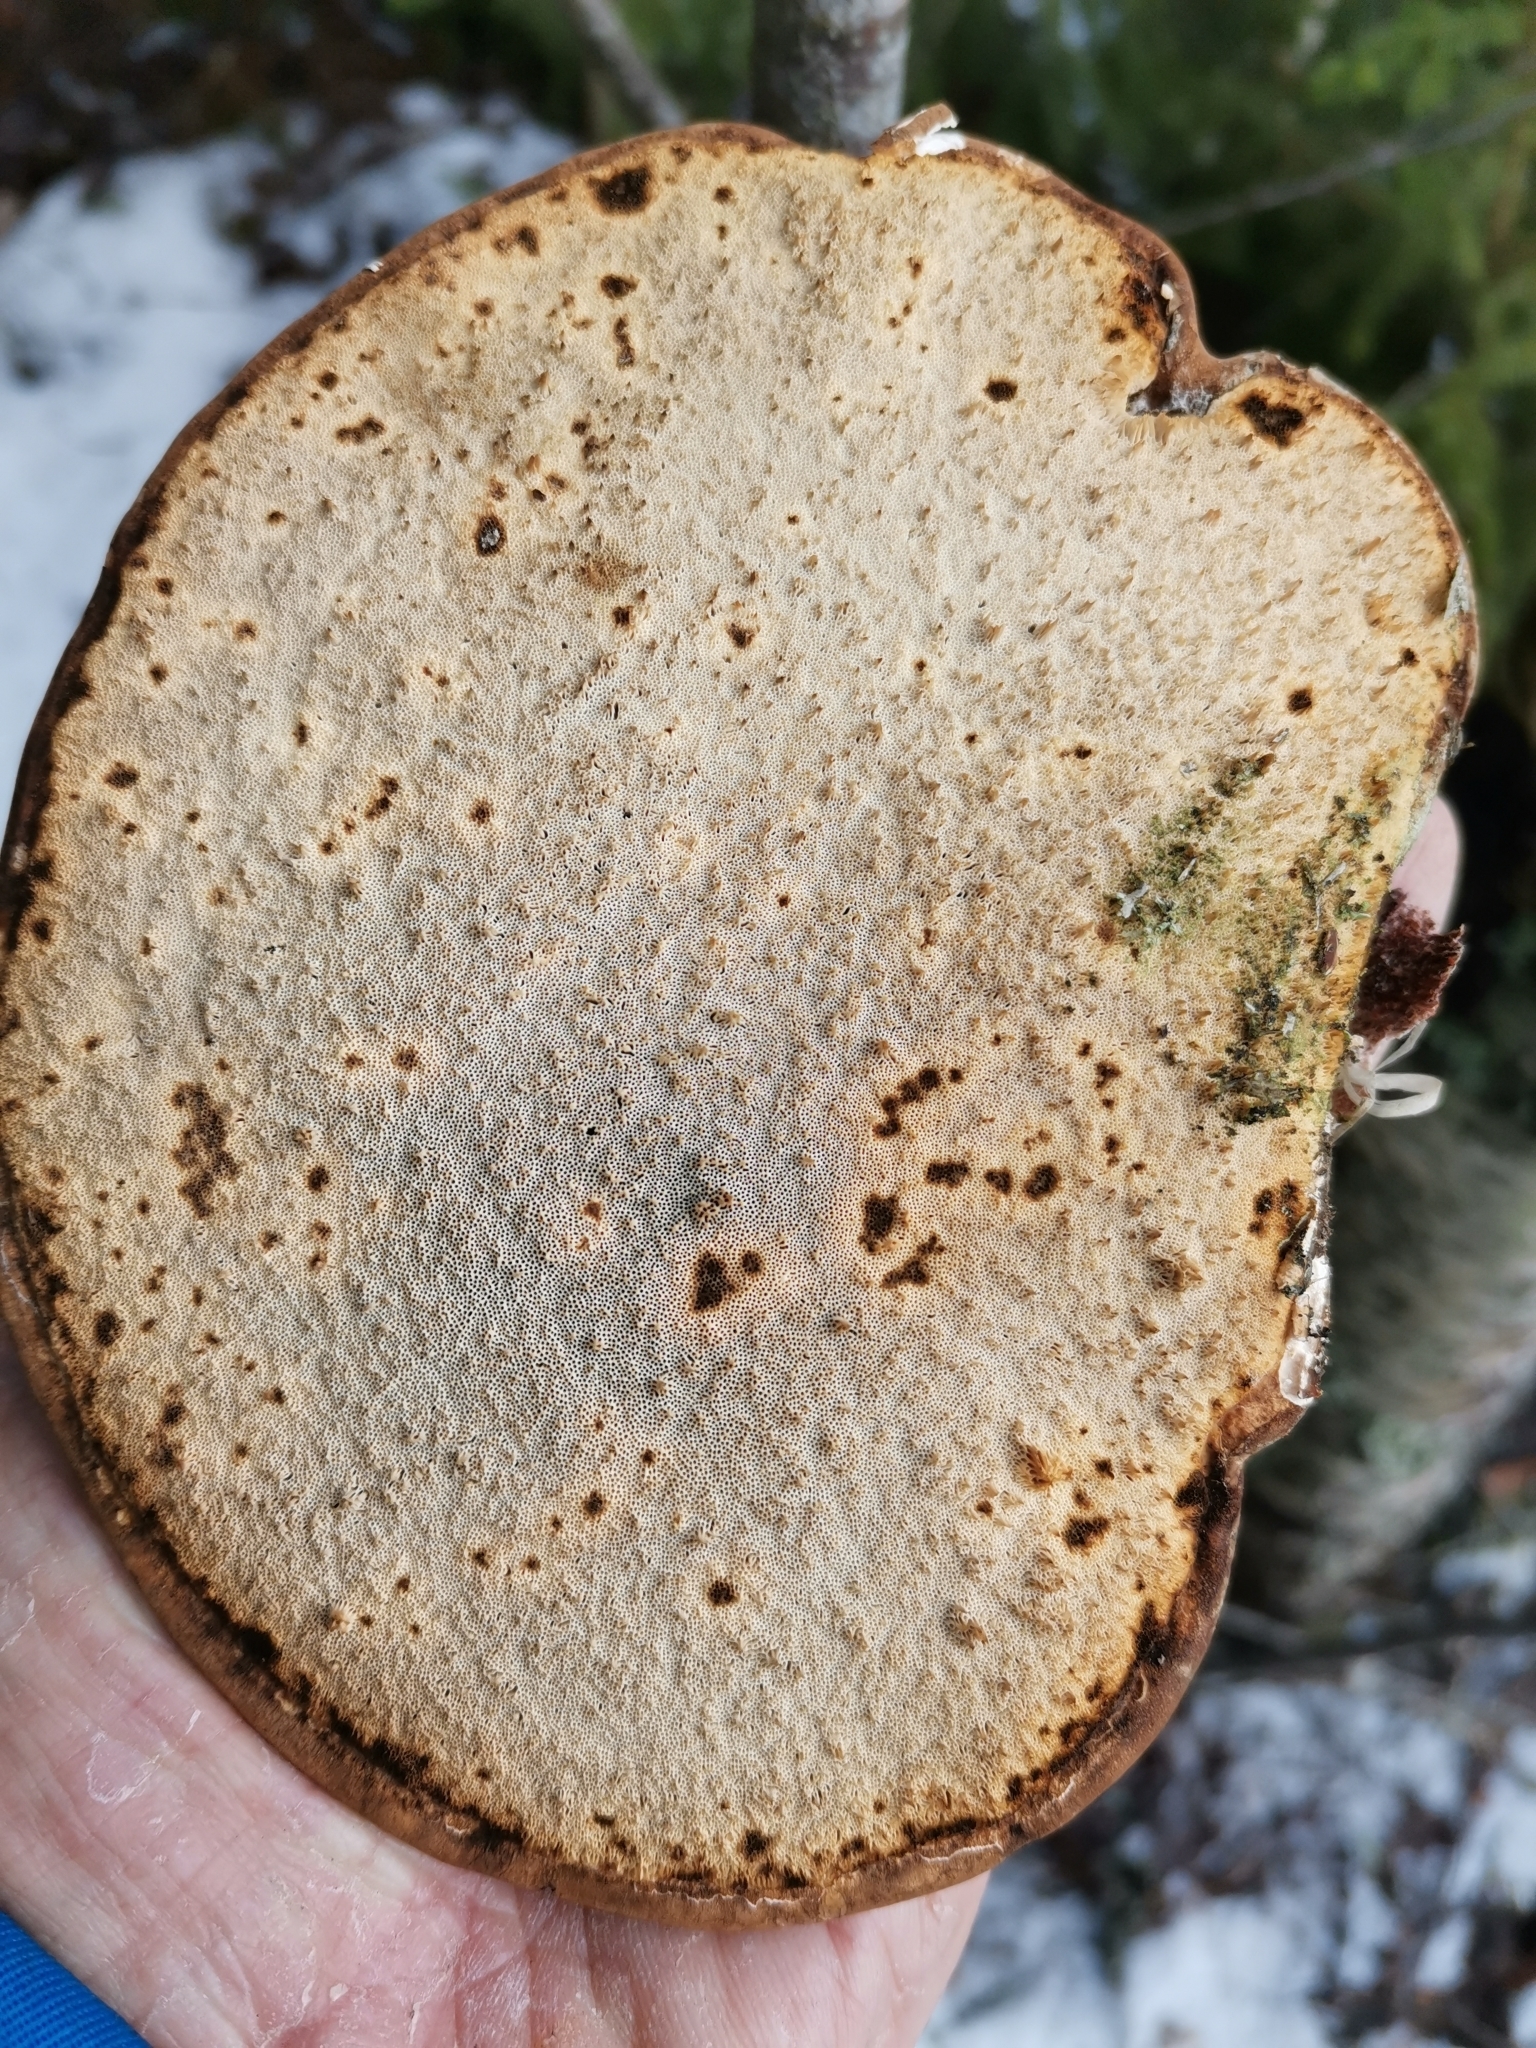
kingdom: Fungi
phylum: Basidiomycota
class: Agaricomycetes
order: Polyporales
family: Fomitopsidaceae
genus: Fomitopsis
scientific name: Fomitopsis betulina
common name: Birch polypore
